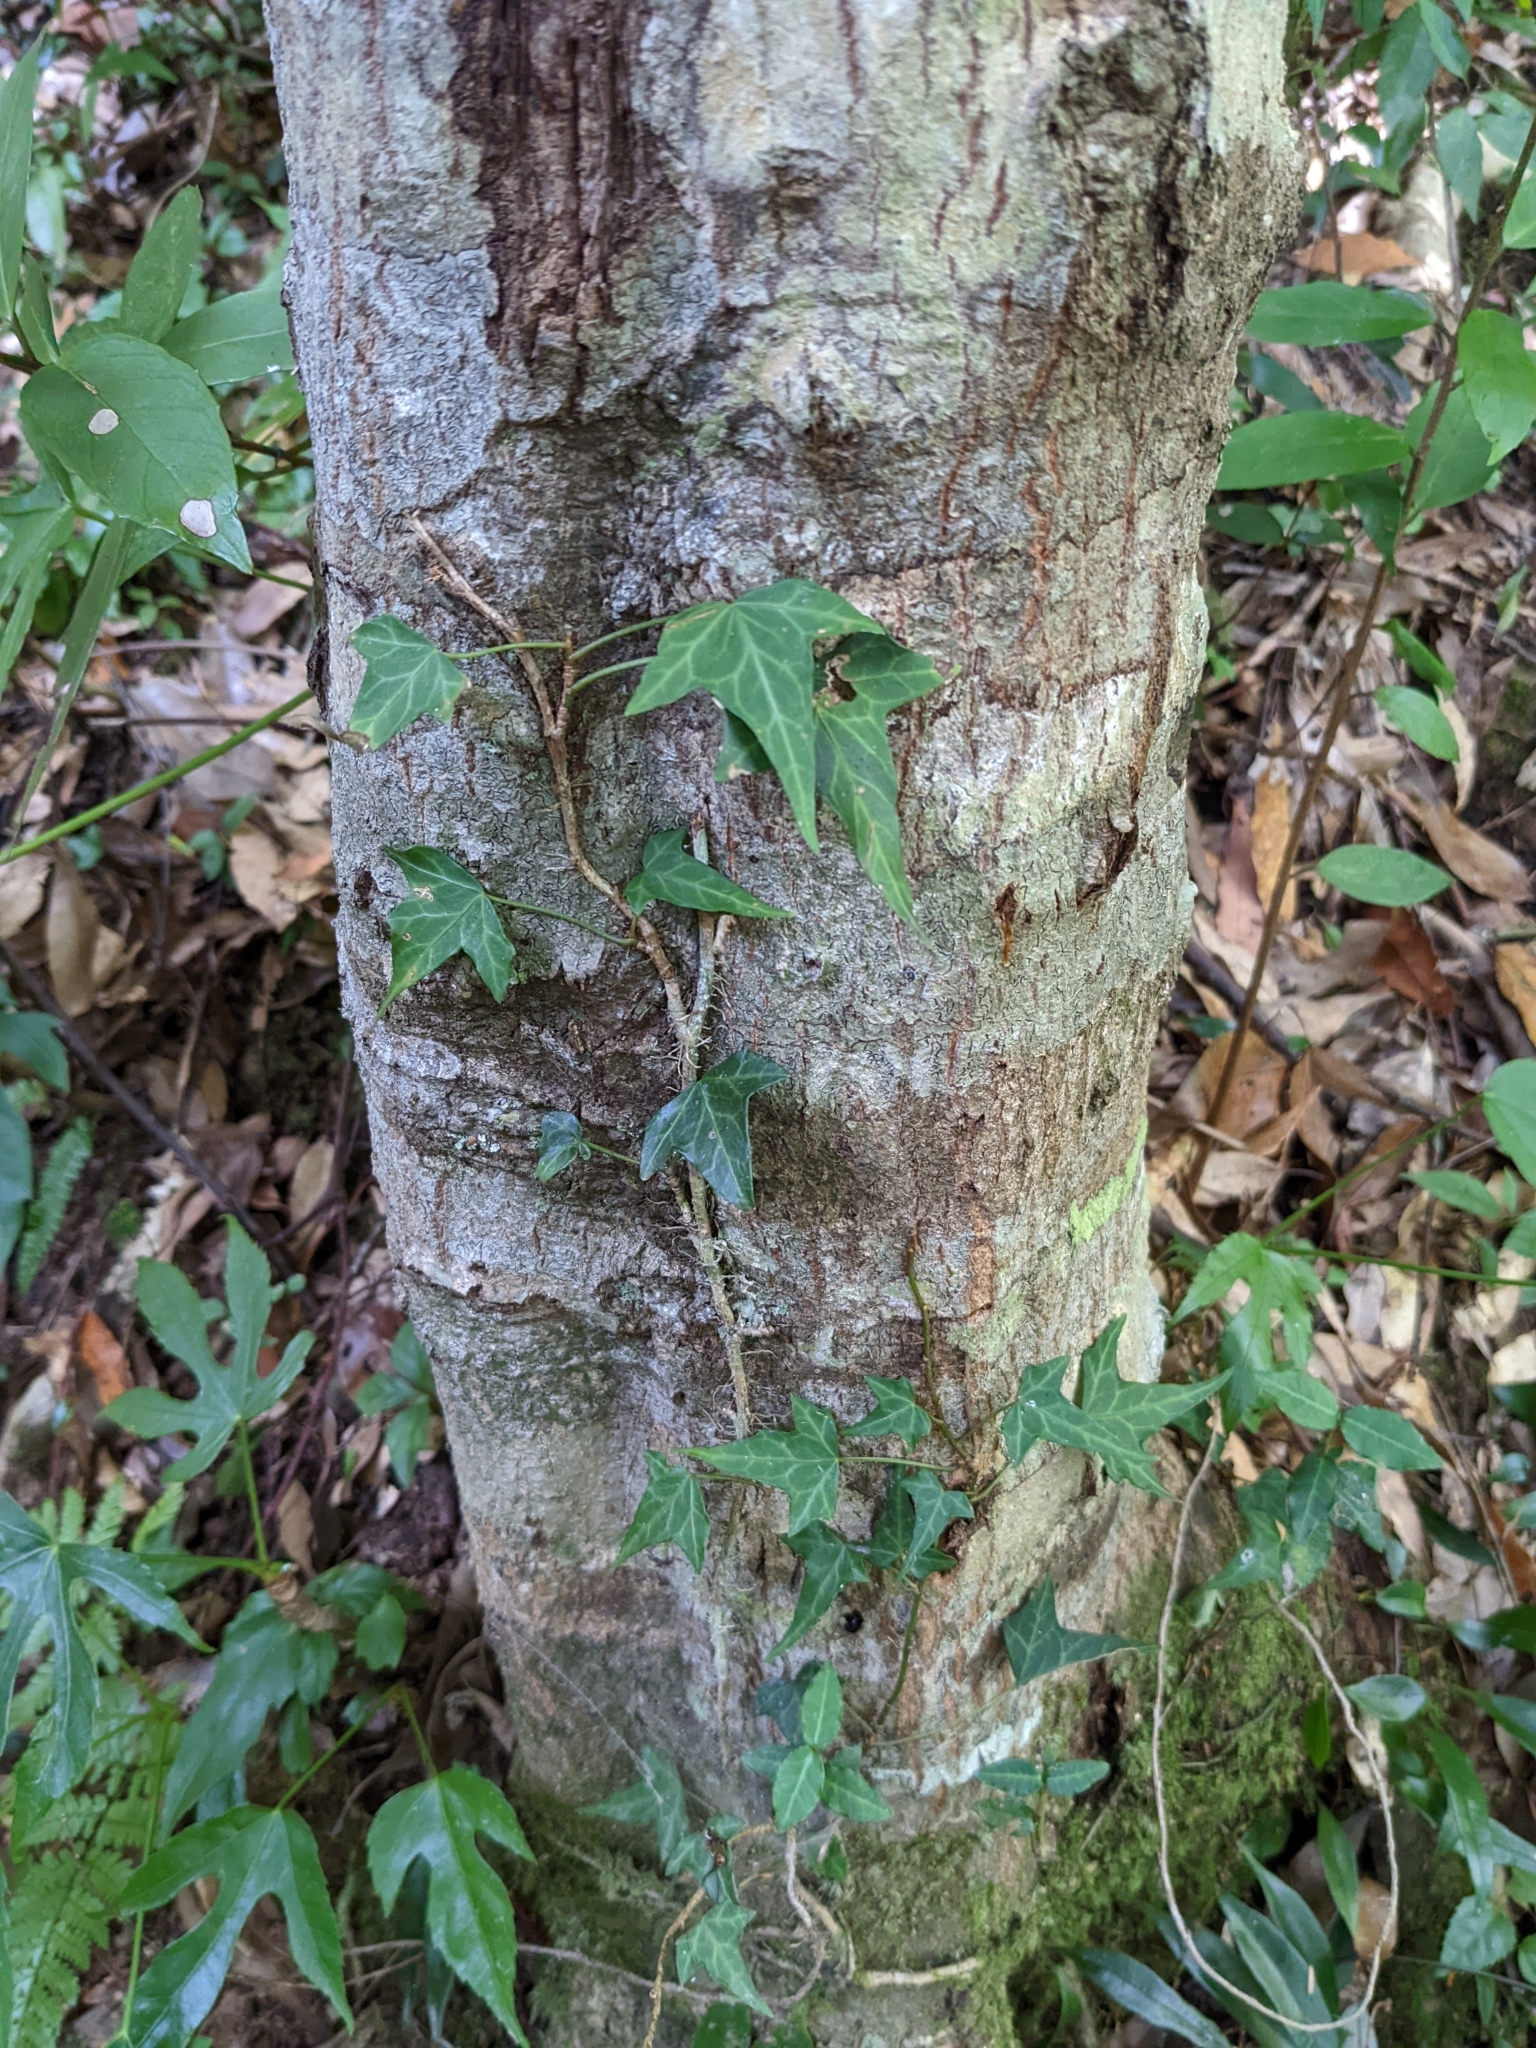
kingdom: Plantae
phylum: Tracheophyta
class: Magnoliopsida
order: Apiales
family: Araliaceae
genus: Hedera
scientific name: Hedera rhombea
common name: Japanese ivy
